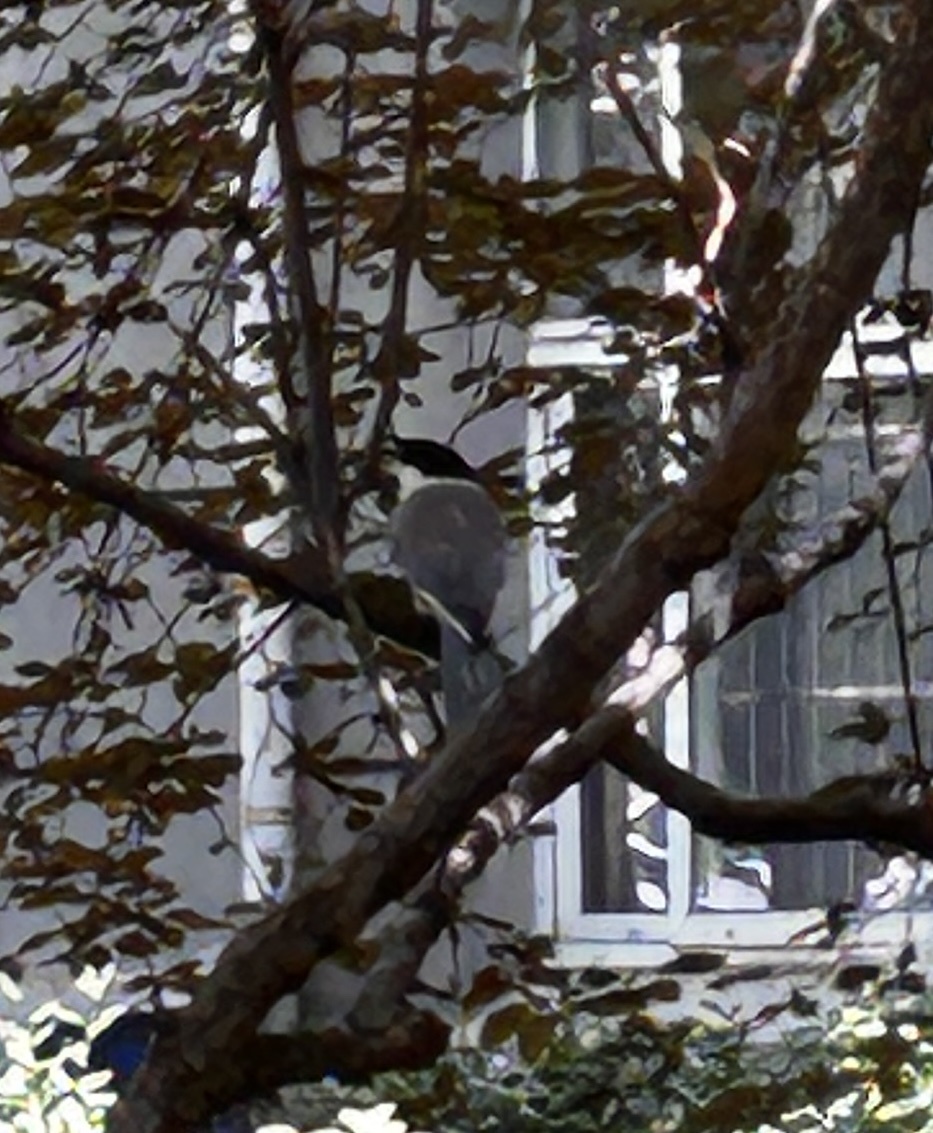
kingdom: Animalia
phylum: Chordata
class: Aves
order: Passeriformes
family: Corvidae
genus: Cyanopica
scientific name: Cyanopica cyanus
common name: Azure-winged magpie
